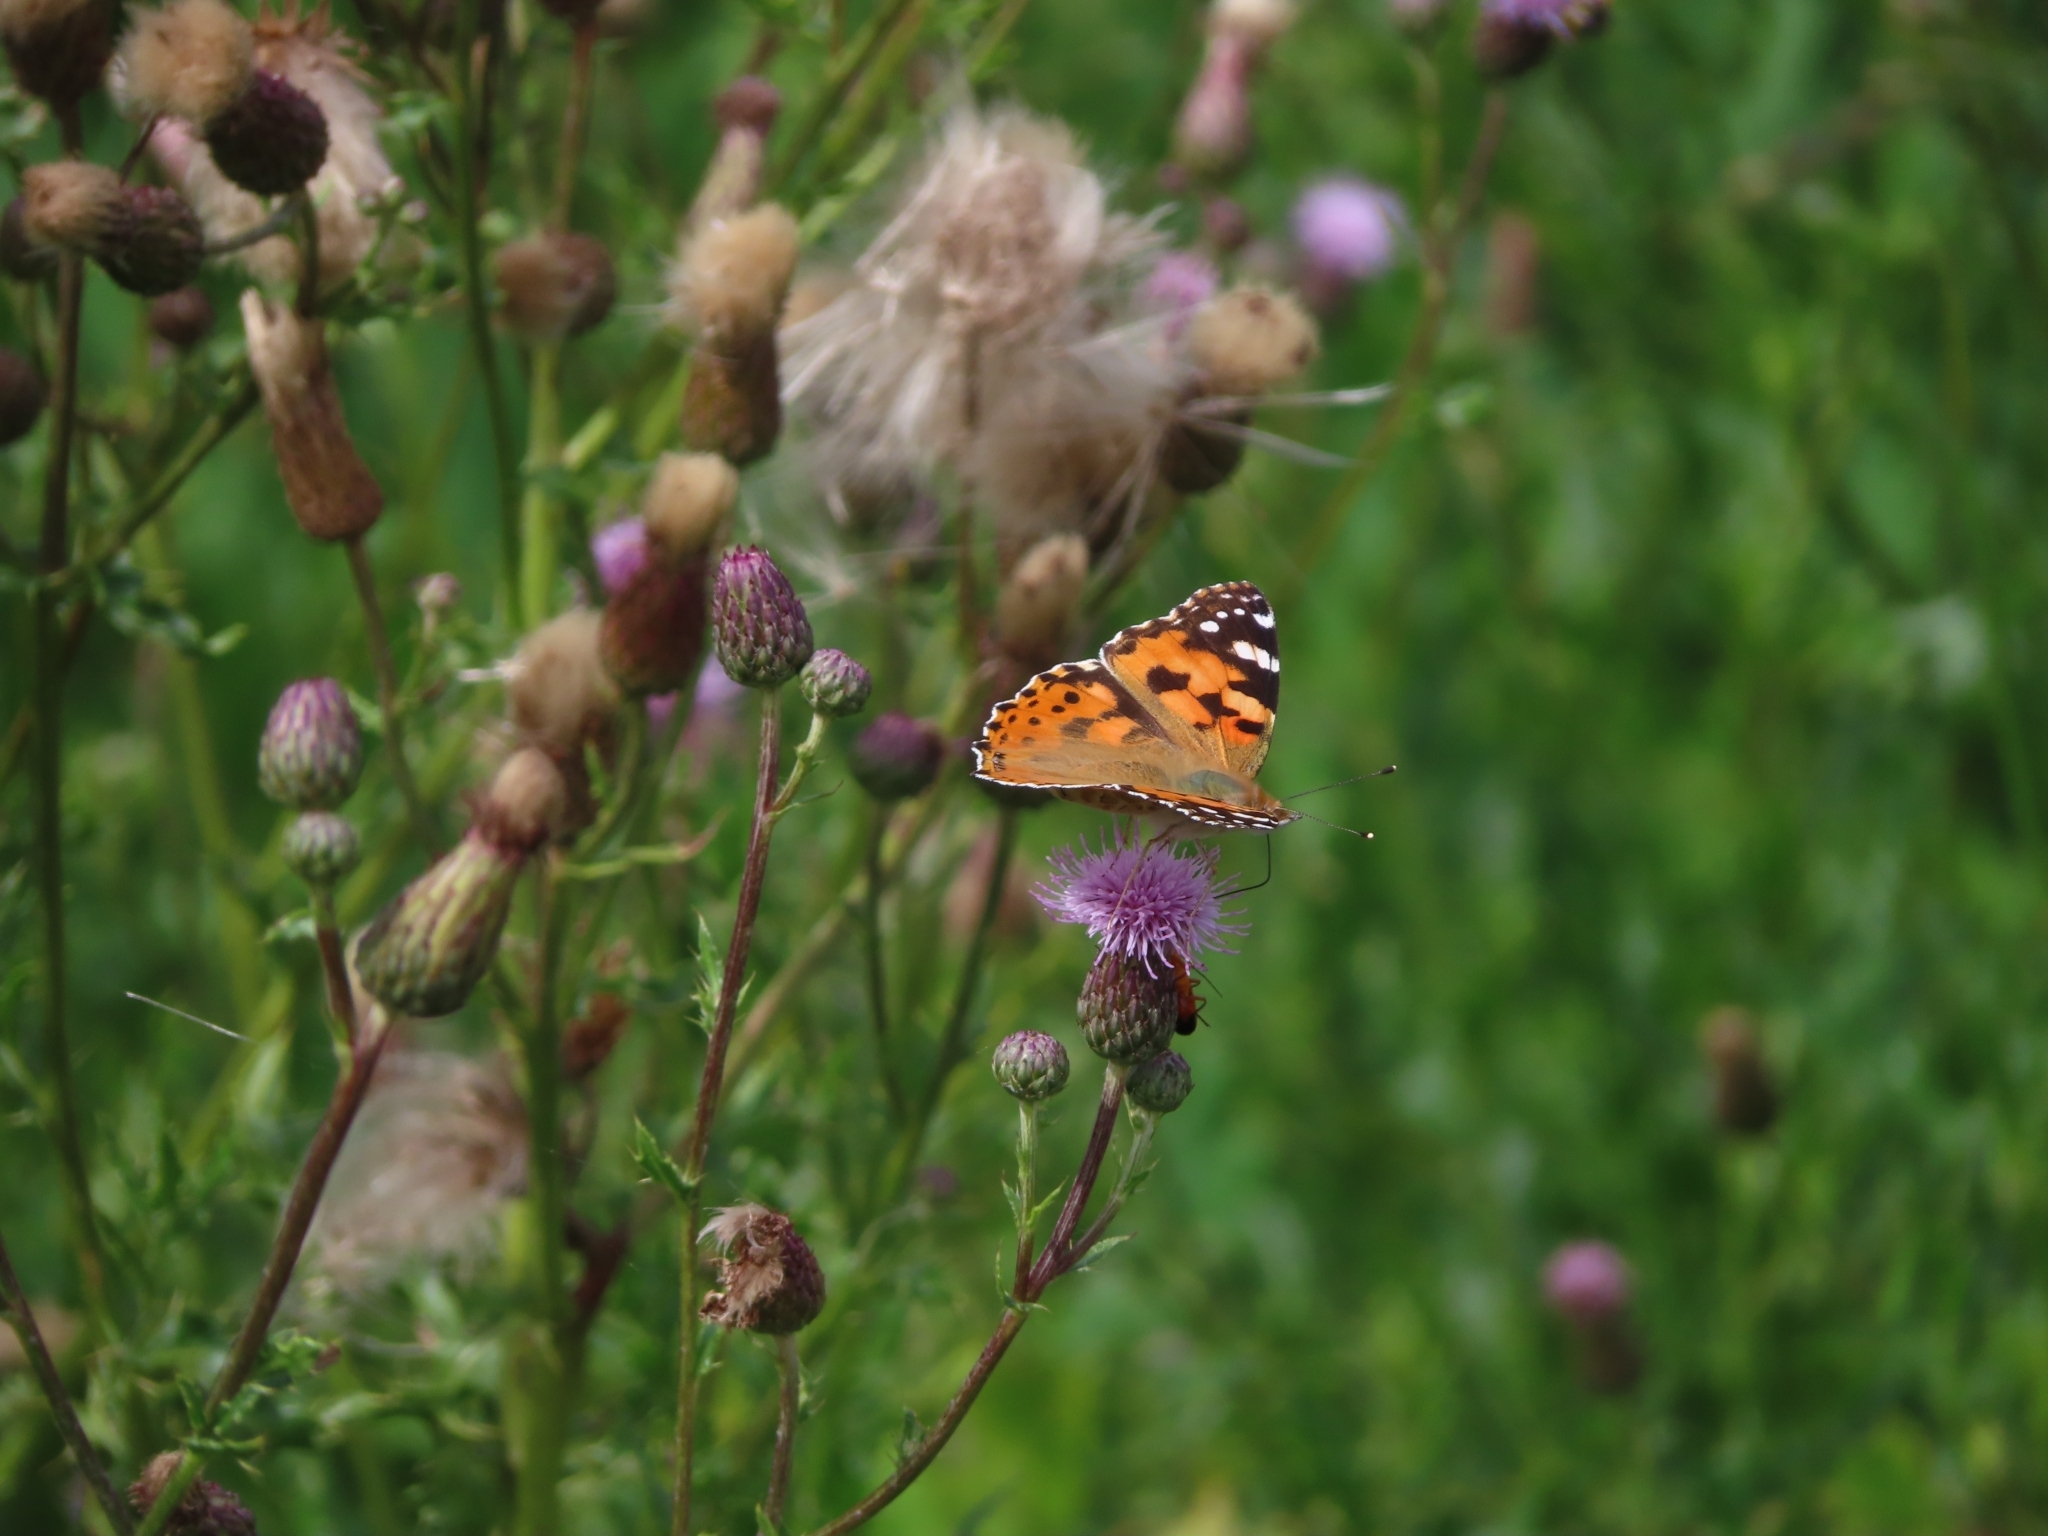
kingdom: Animalia
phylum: Arthropoda
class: Insecta
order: Lepidoptera
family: Nymphalidae
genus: Vanessa
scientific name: Vanessa cardui
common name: Painted lady
